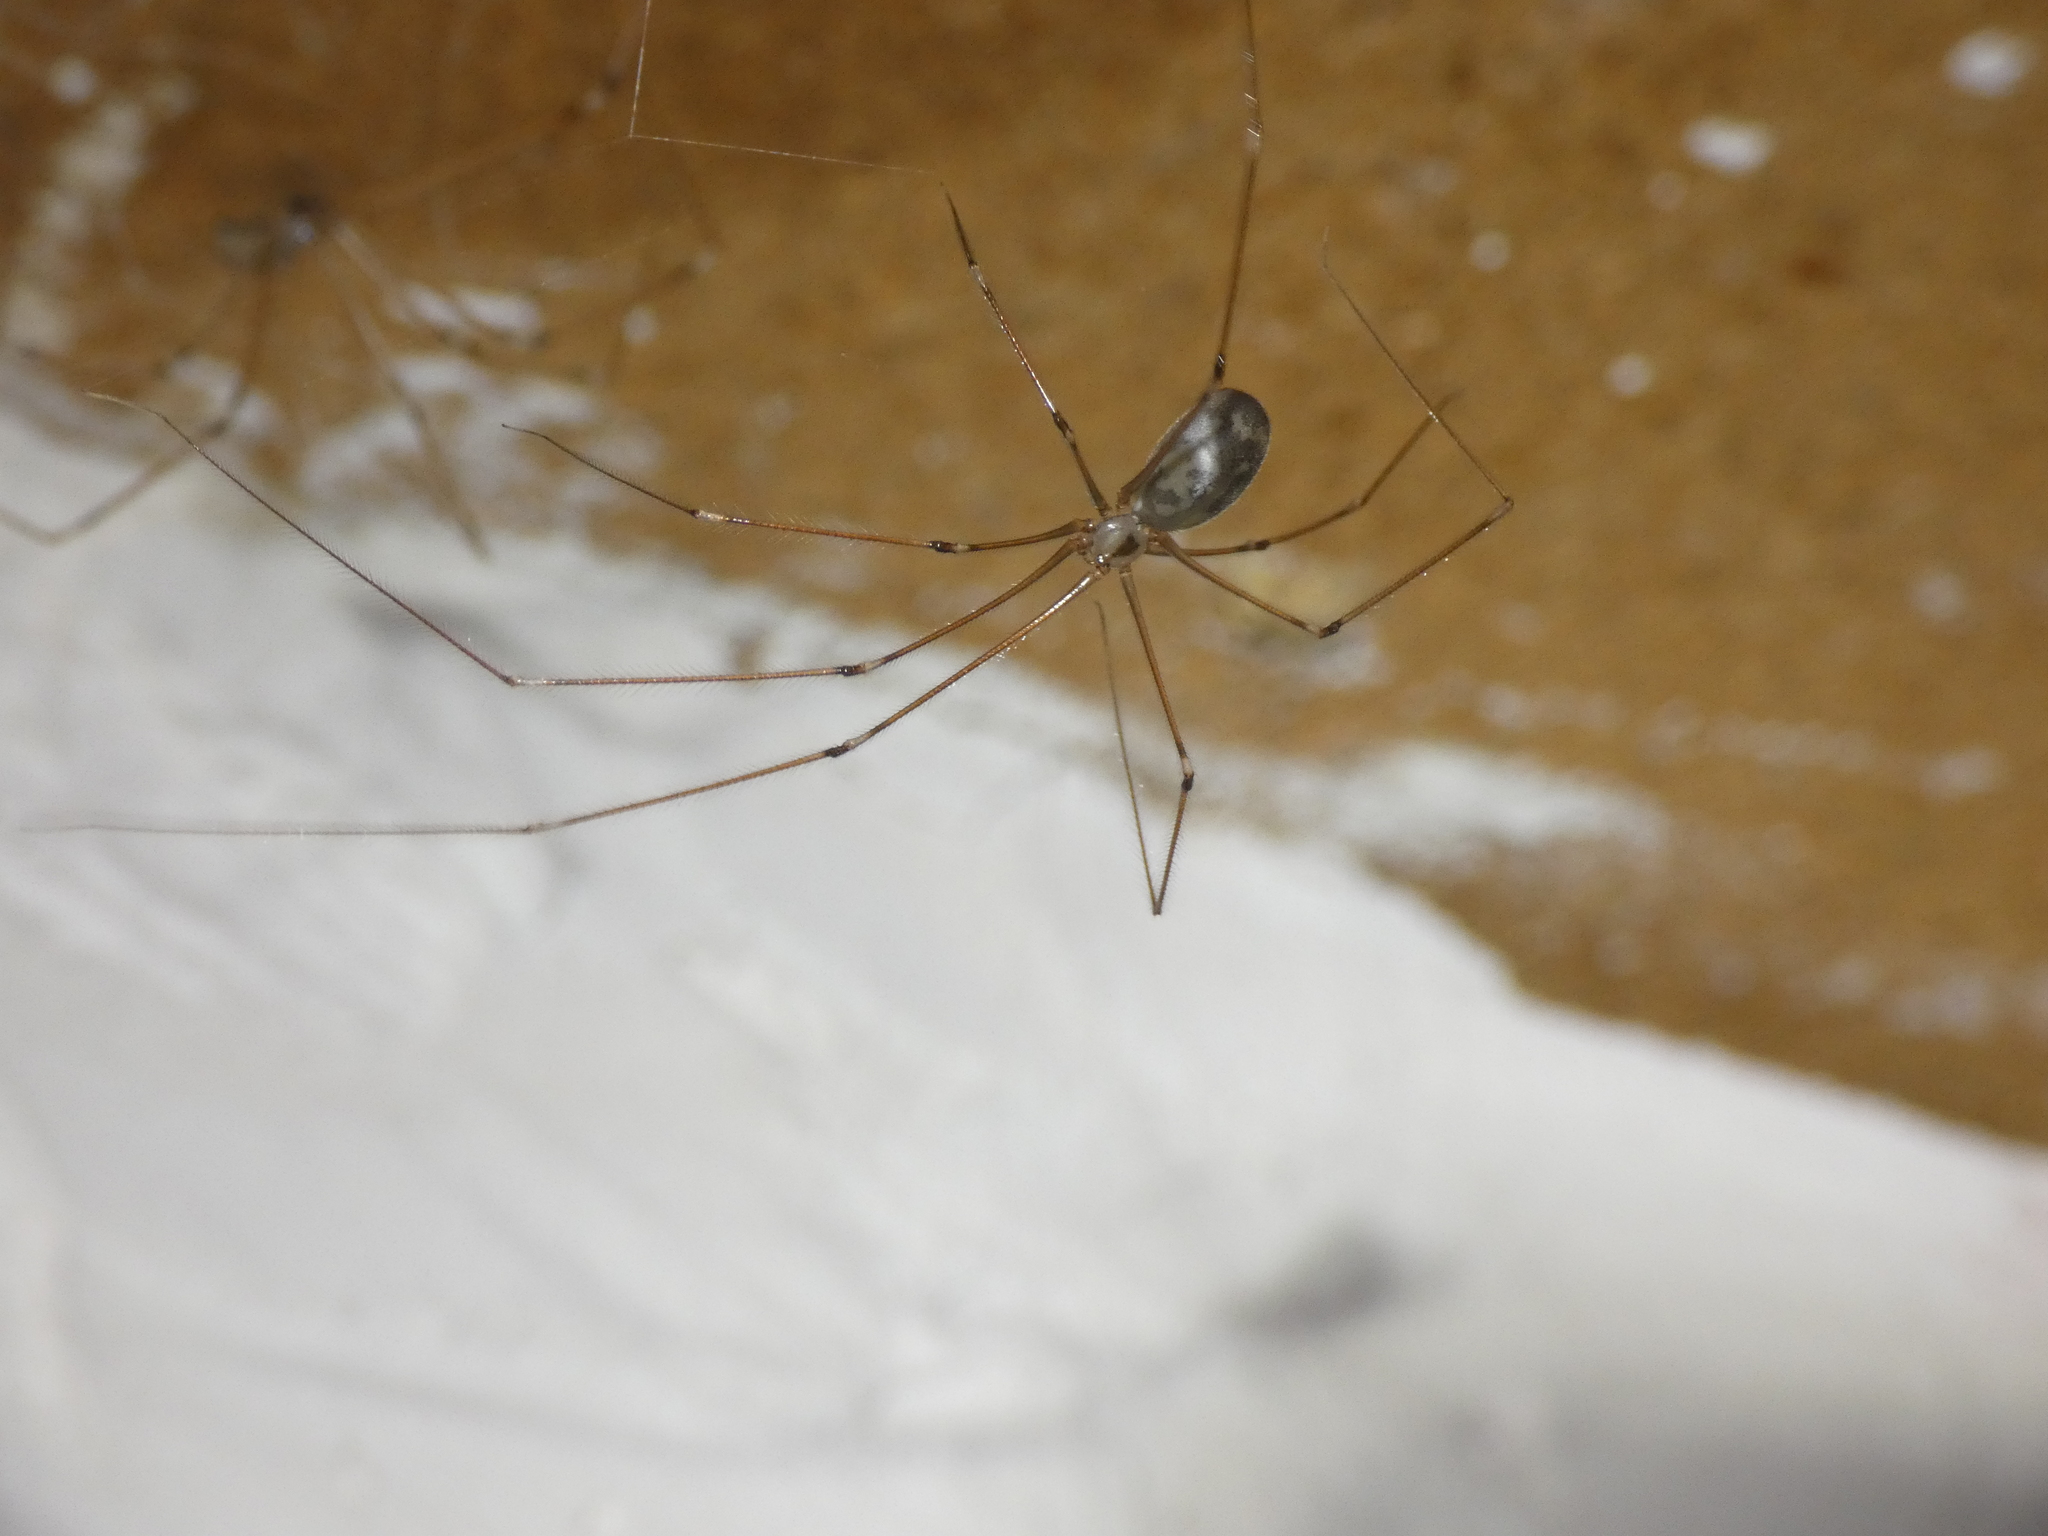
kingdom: Animalia
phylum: Arthropoda
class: Arachnida
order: Araneae
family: Pholcidae
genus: Pholcus
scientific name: Pholcus phalangioides
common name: Longbodied cellar spider
